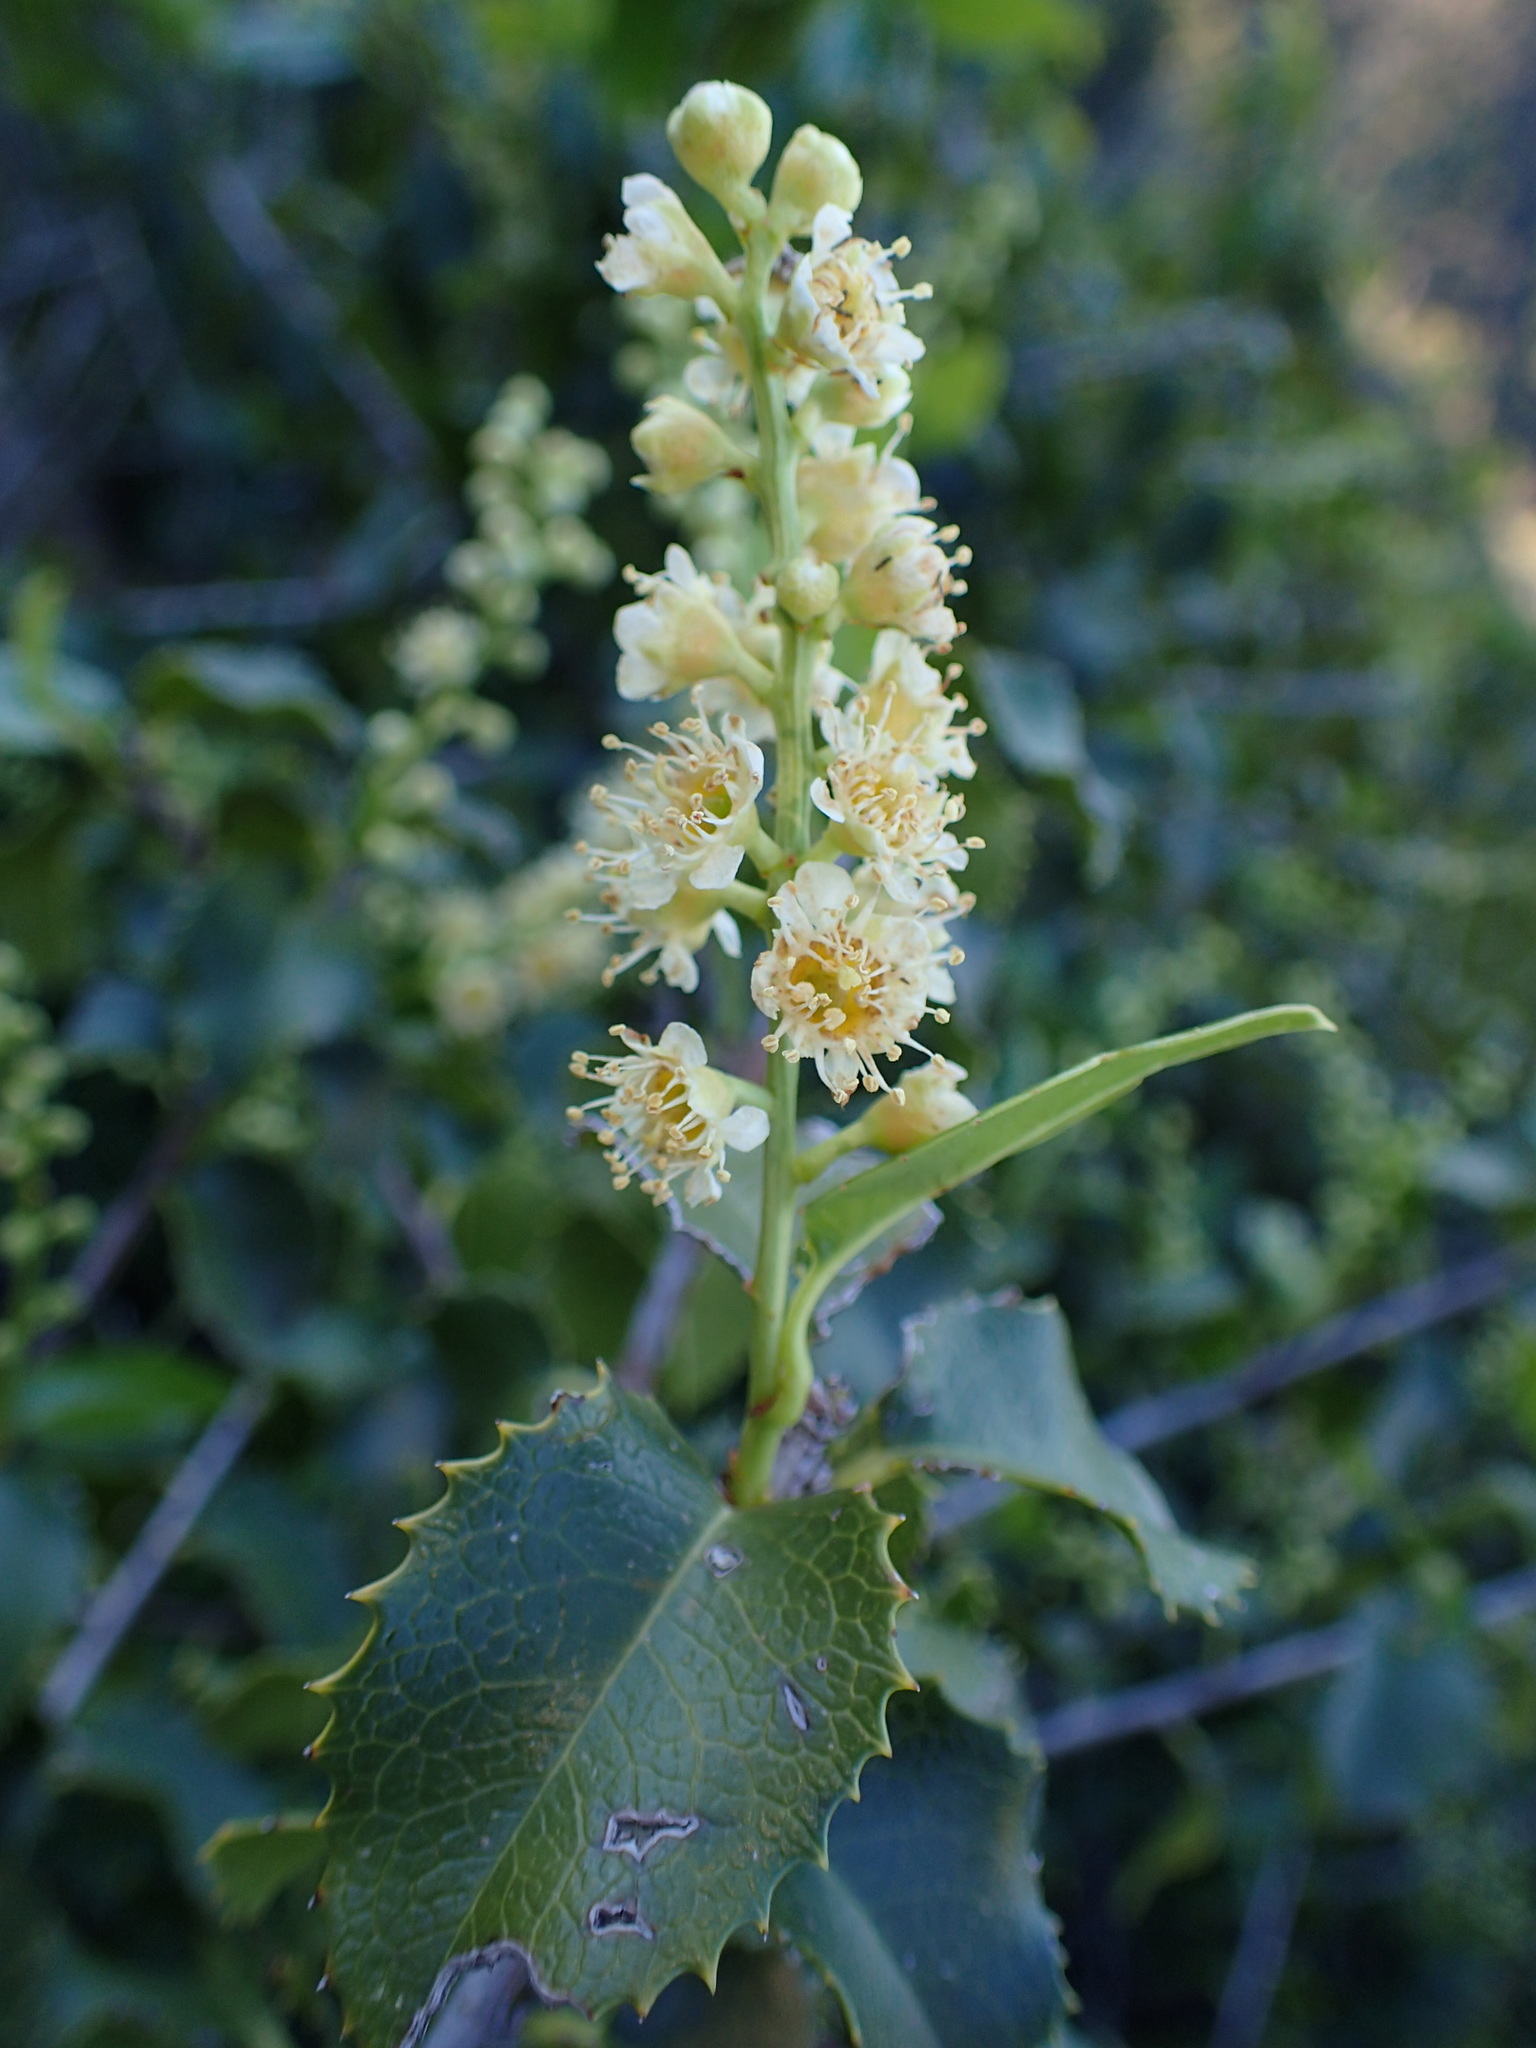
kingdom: Plantae
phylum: Tracheophyta
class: Magnoliopsida
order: Rosales
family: Rosaceae
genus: Prunus
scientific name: Prunus ilicifolia
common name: Hollyleaf cherry
